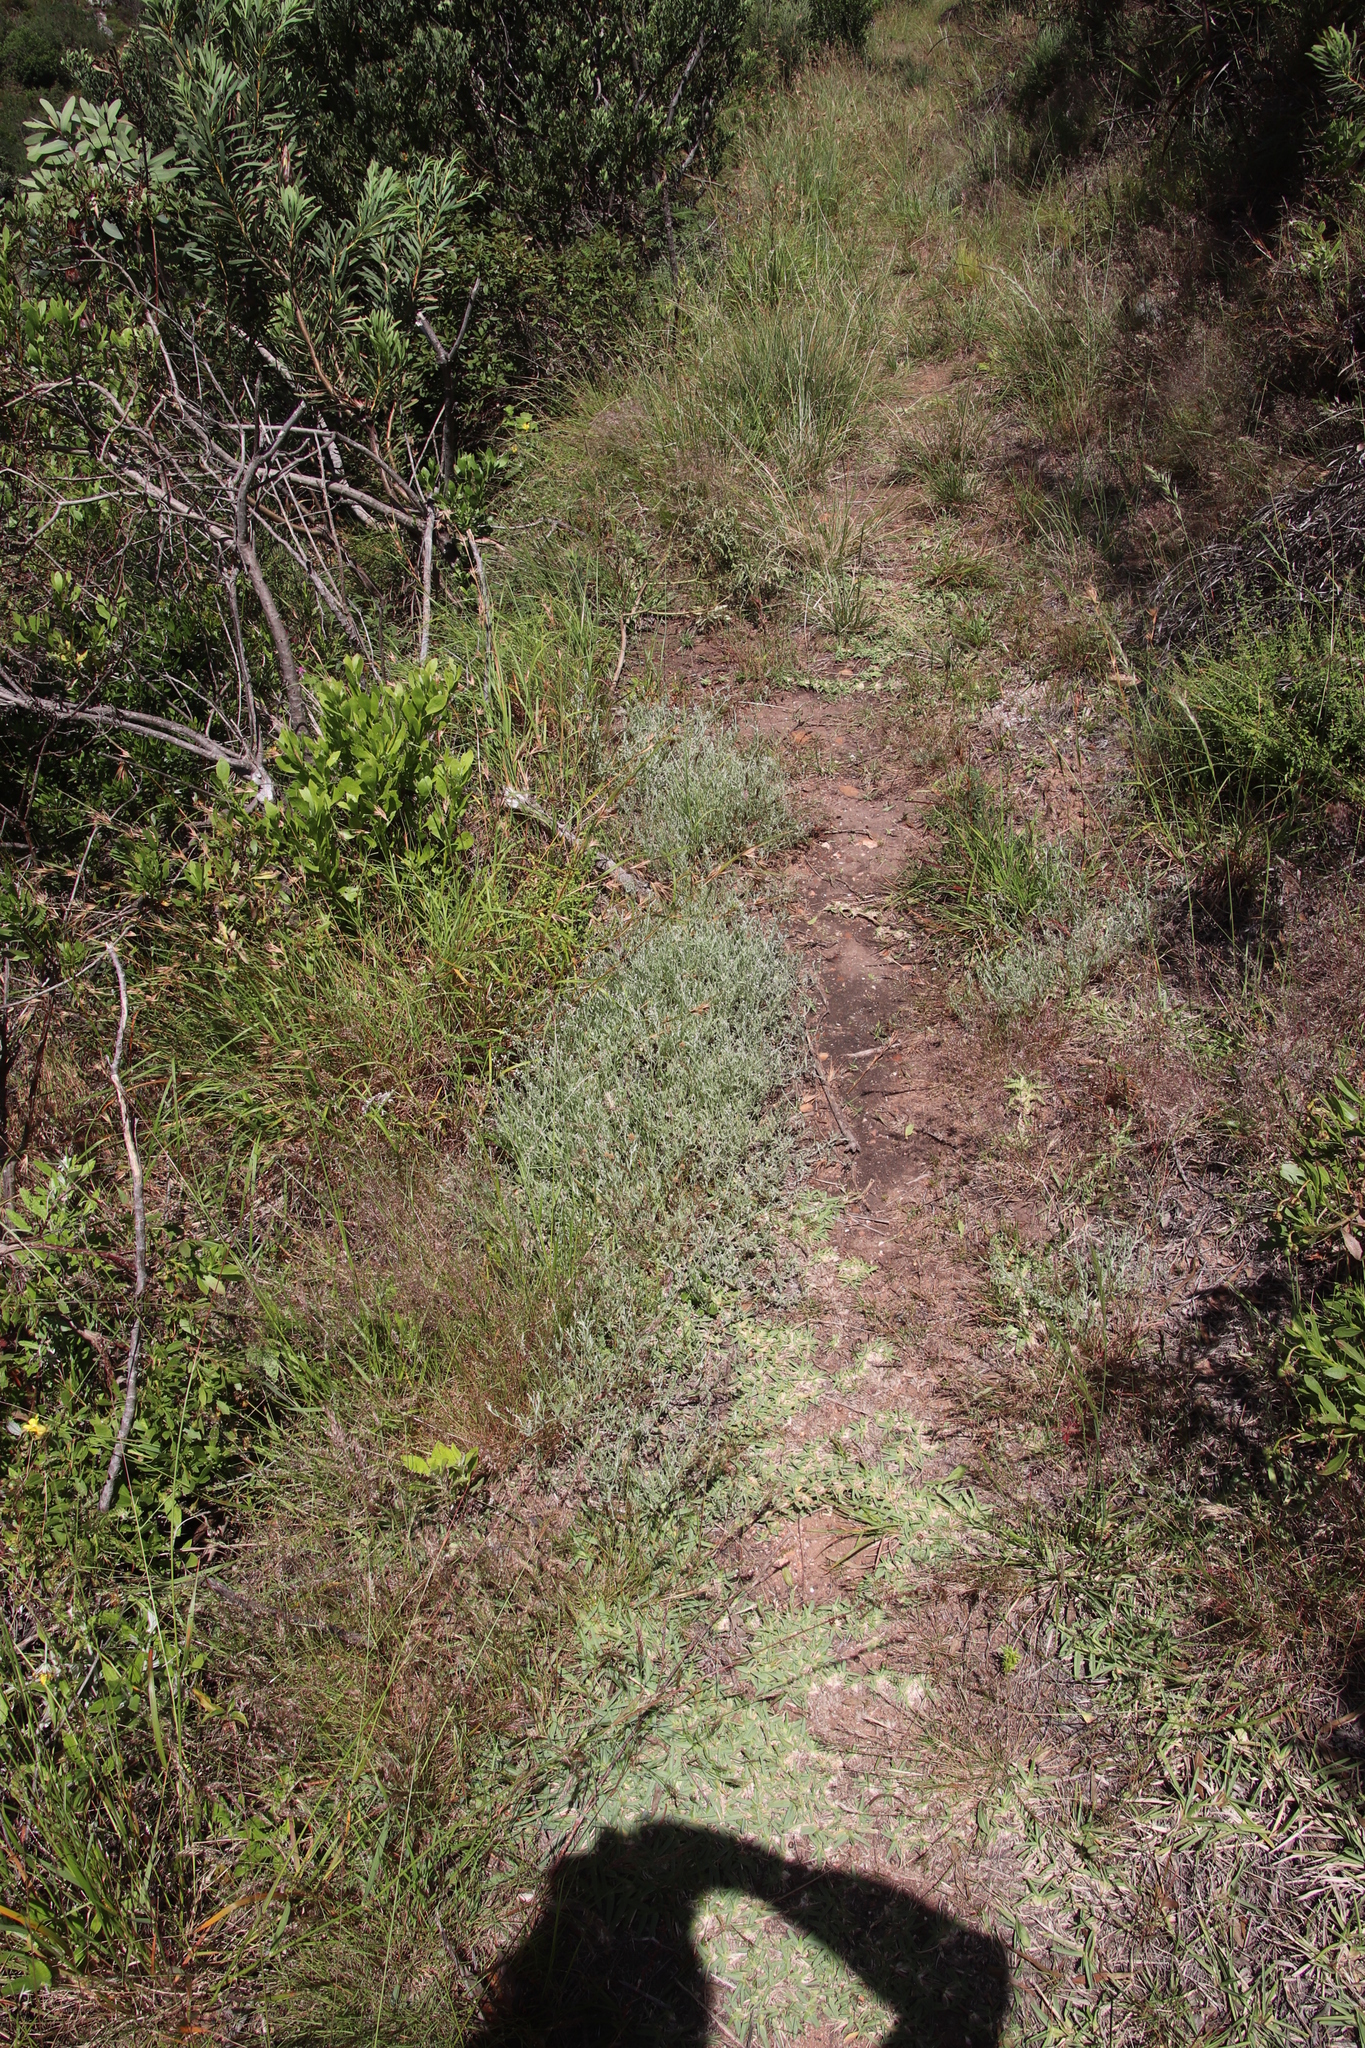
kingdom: Plantae
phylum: Tracheophyta
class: Liliopsida
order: Poales
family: Poaceae
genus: Stenotaphrum
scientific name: Stenotaphrum secundatum
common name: St. augustine grass
